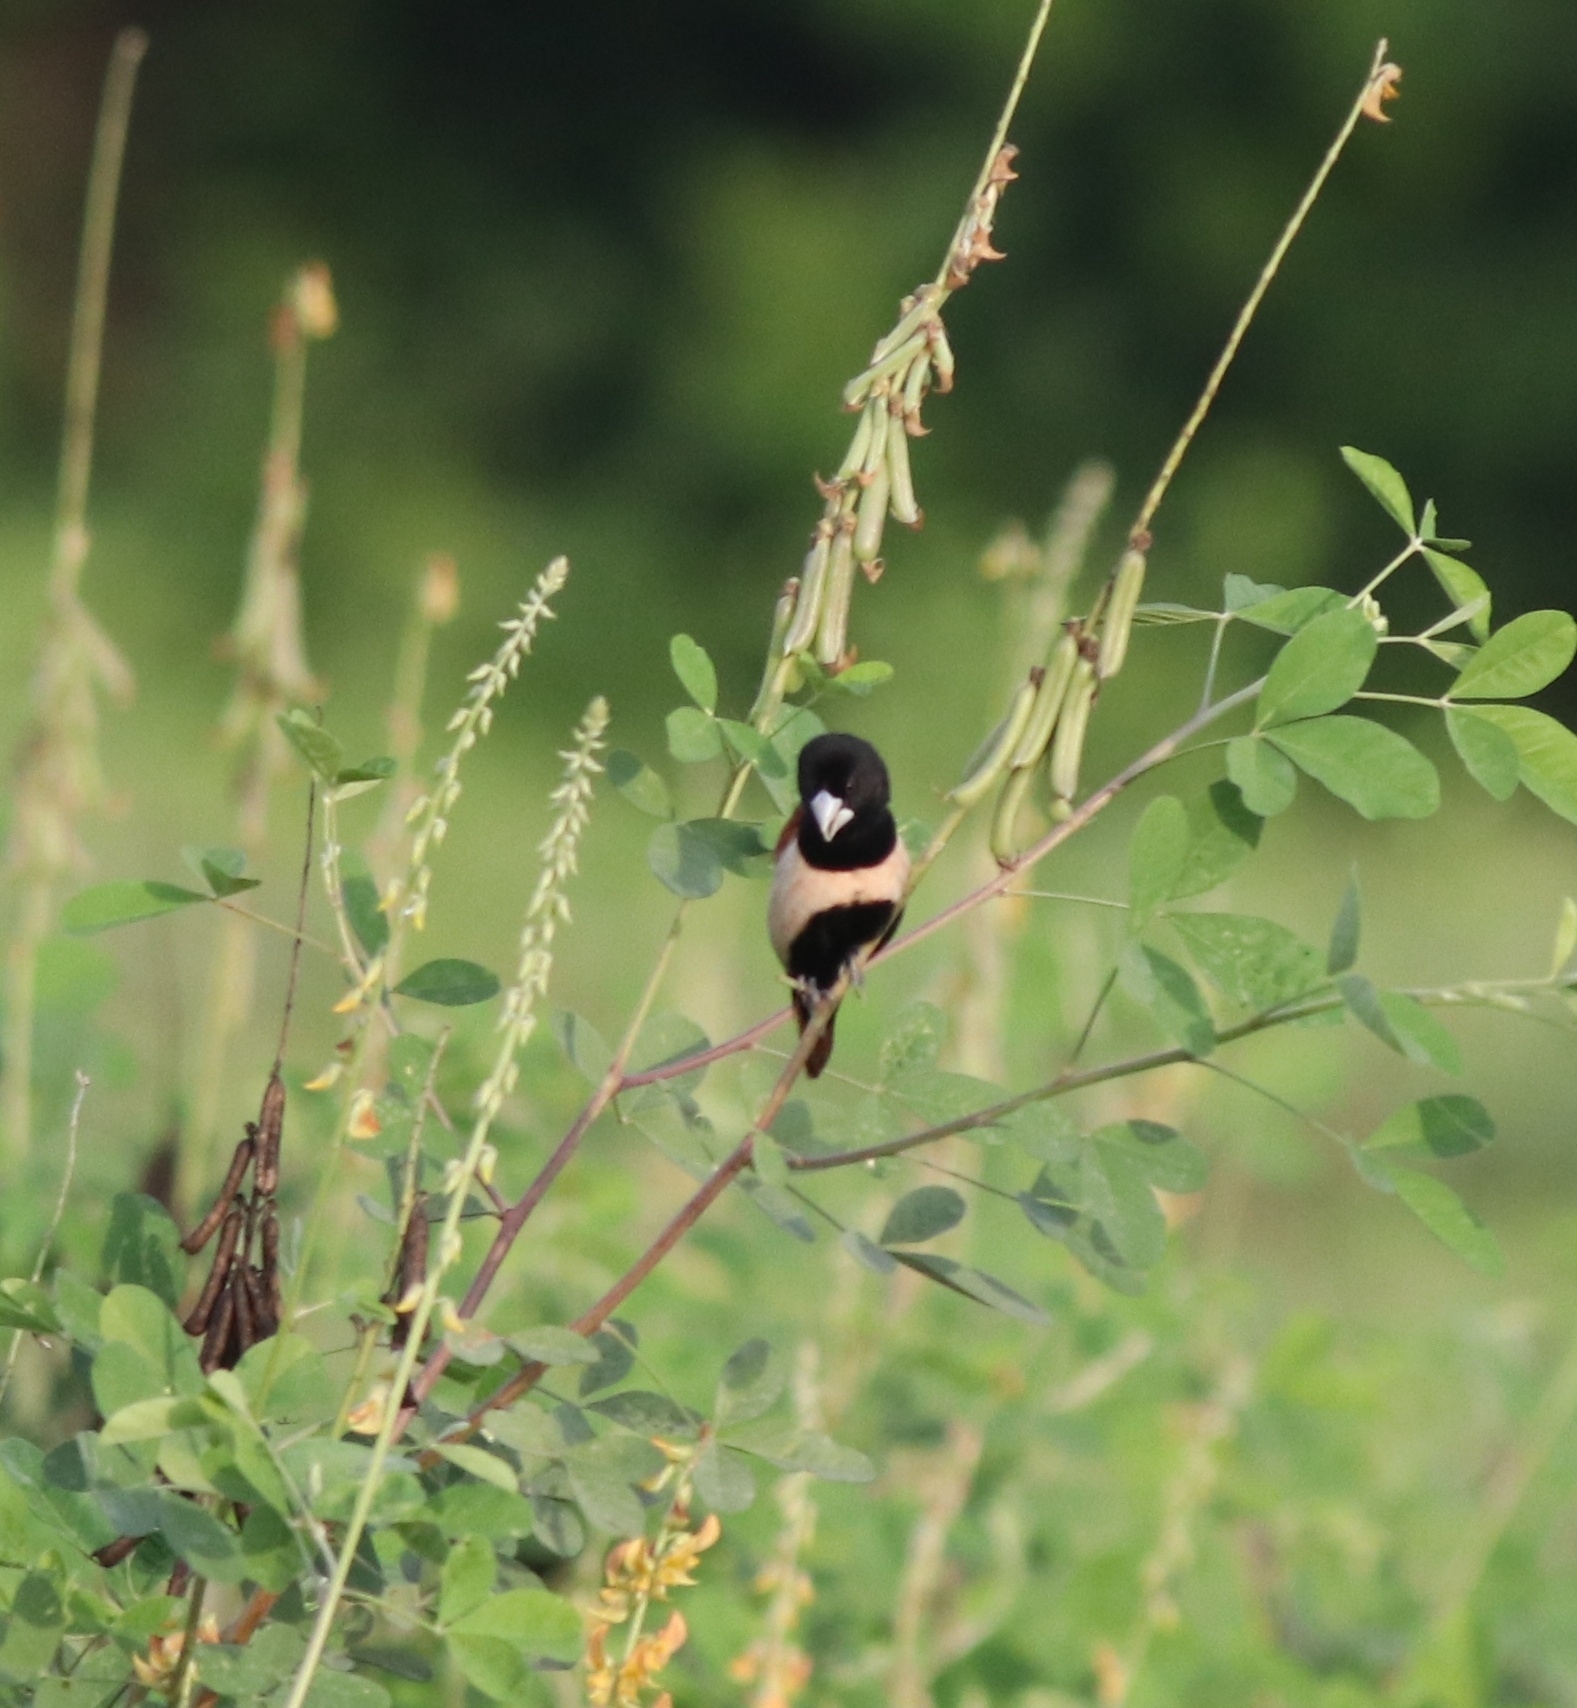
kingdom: Animalia
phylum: Chordata
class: Aves
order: Passeriformes
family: Estrildidae
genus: Lonchura
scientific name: Lonchura malacca
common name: Tricolored munia
